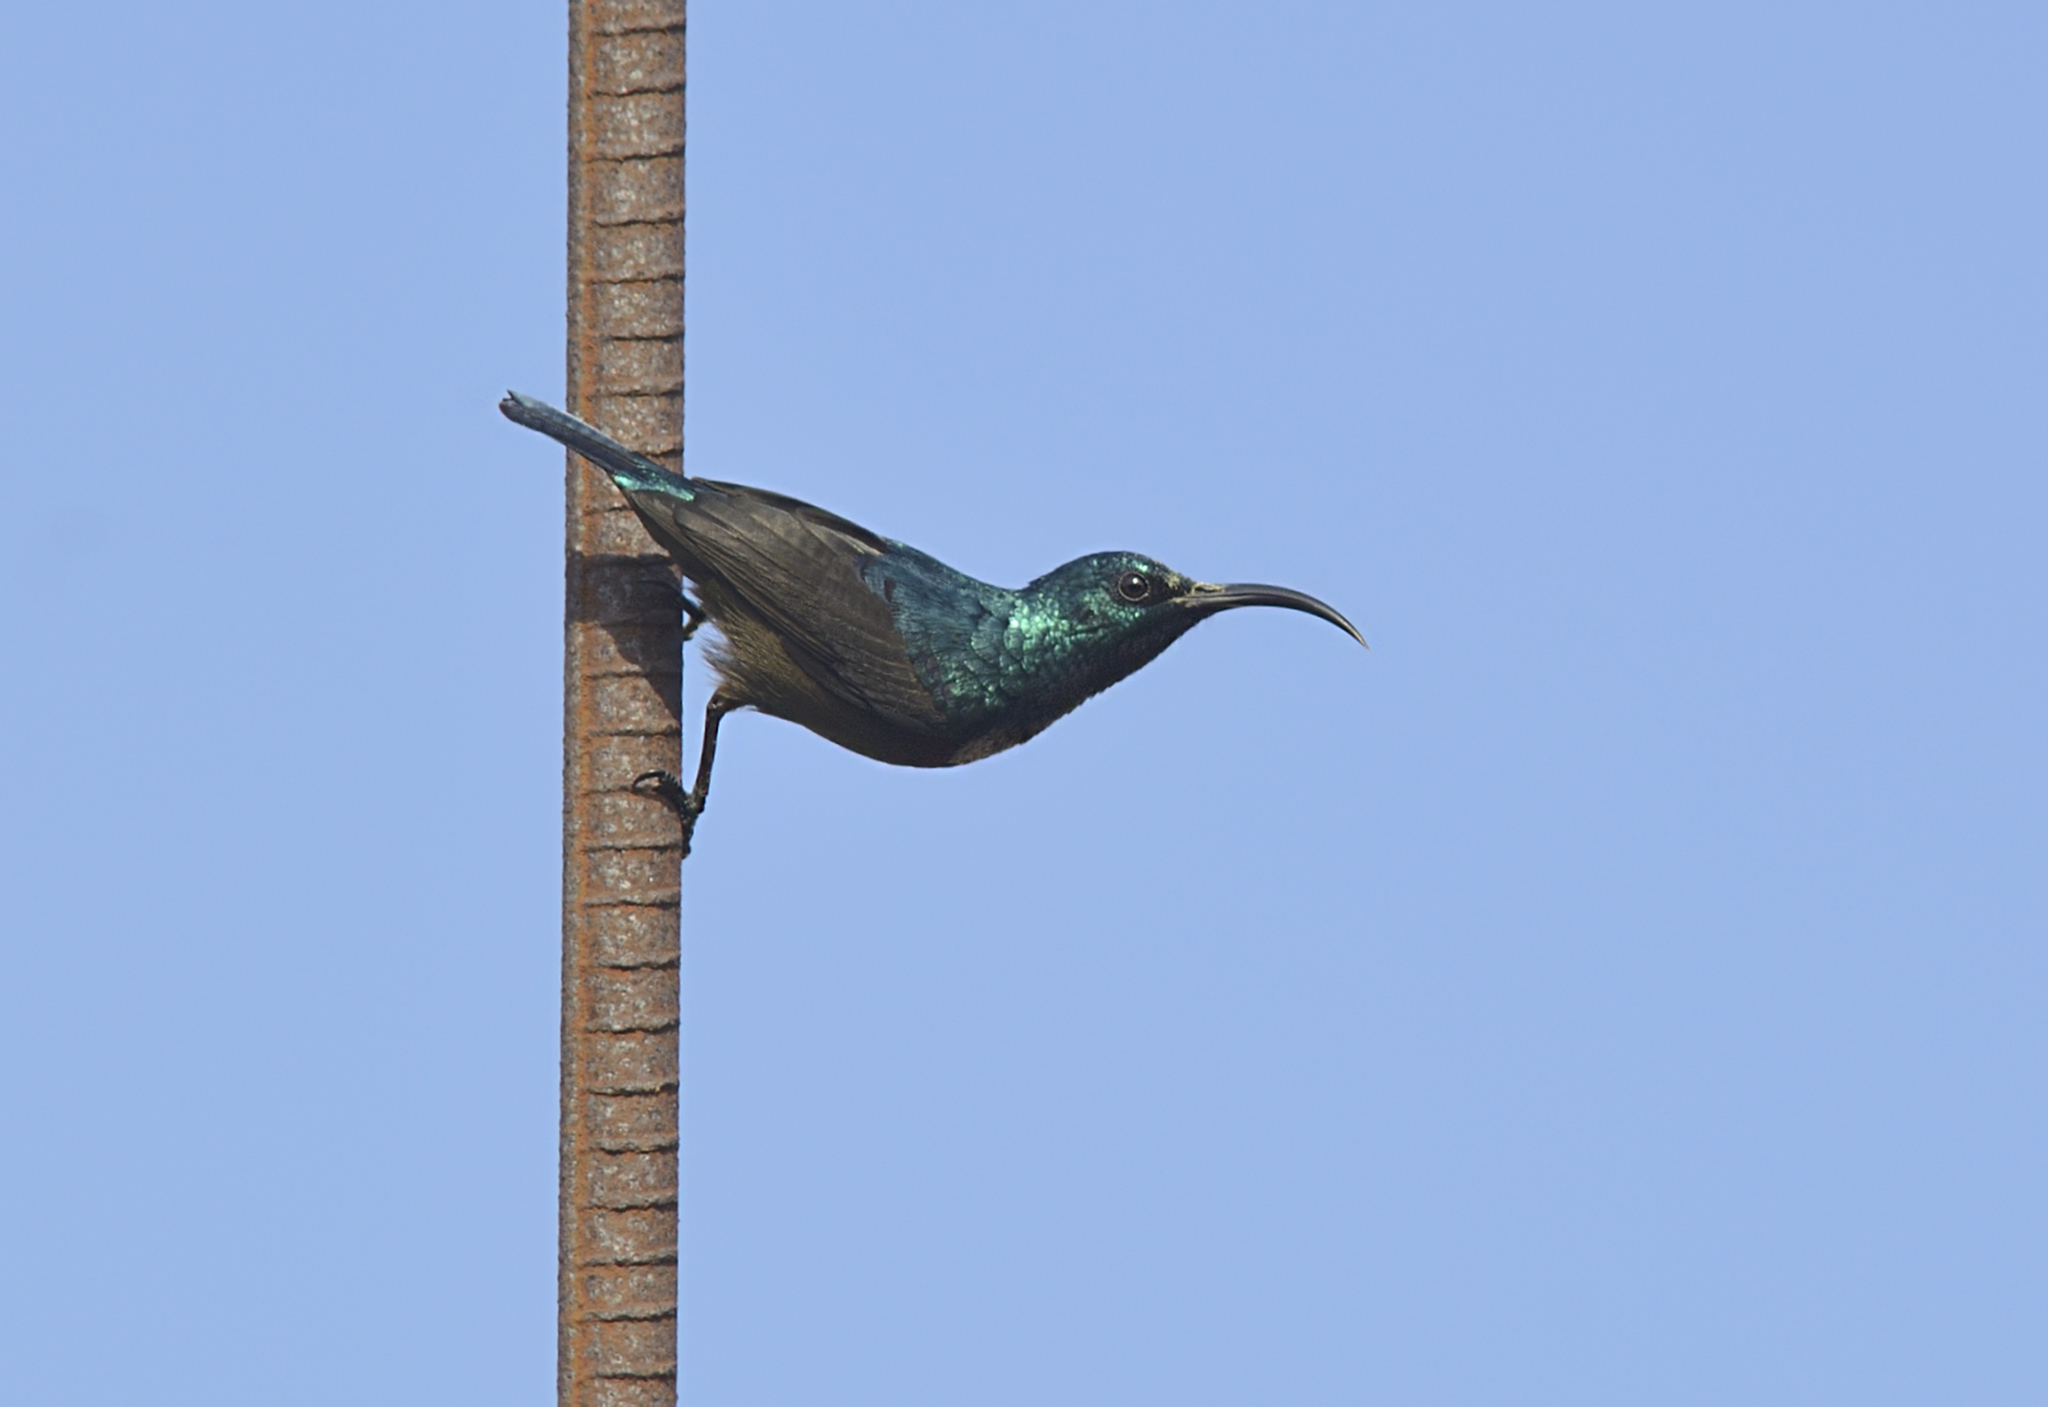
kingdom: Animalia
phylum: Chordata
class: Aves
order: Passeriformes
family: Nectariniidae
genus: Cinnyris
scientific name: Cinnyris lotenius
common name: Loten's sunbird
